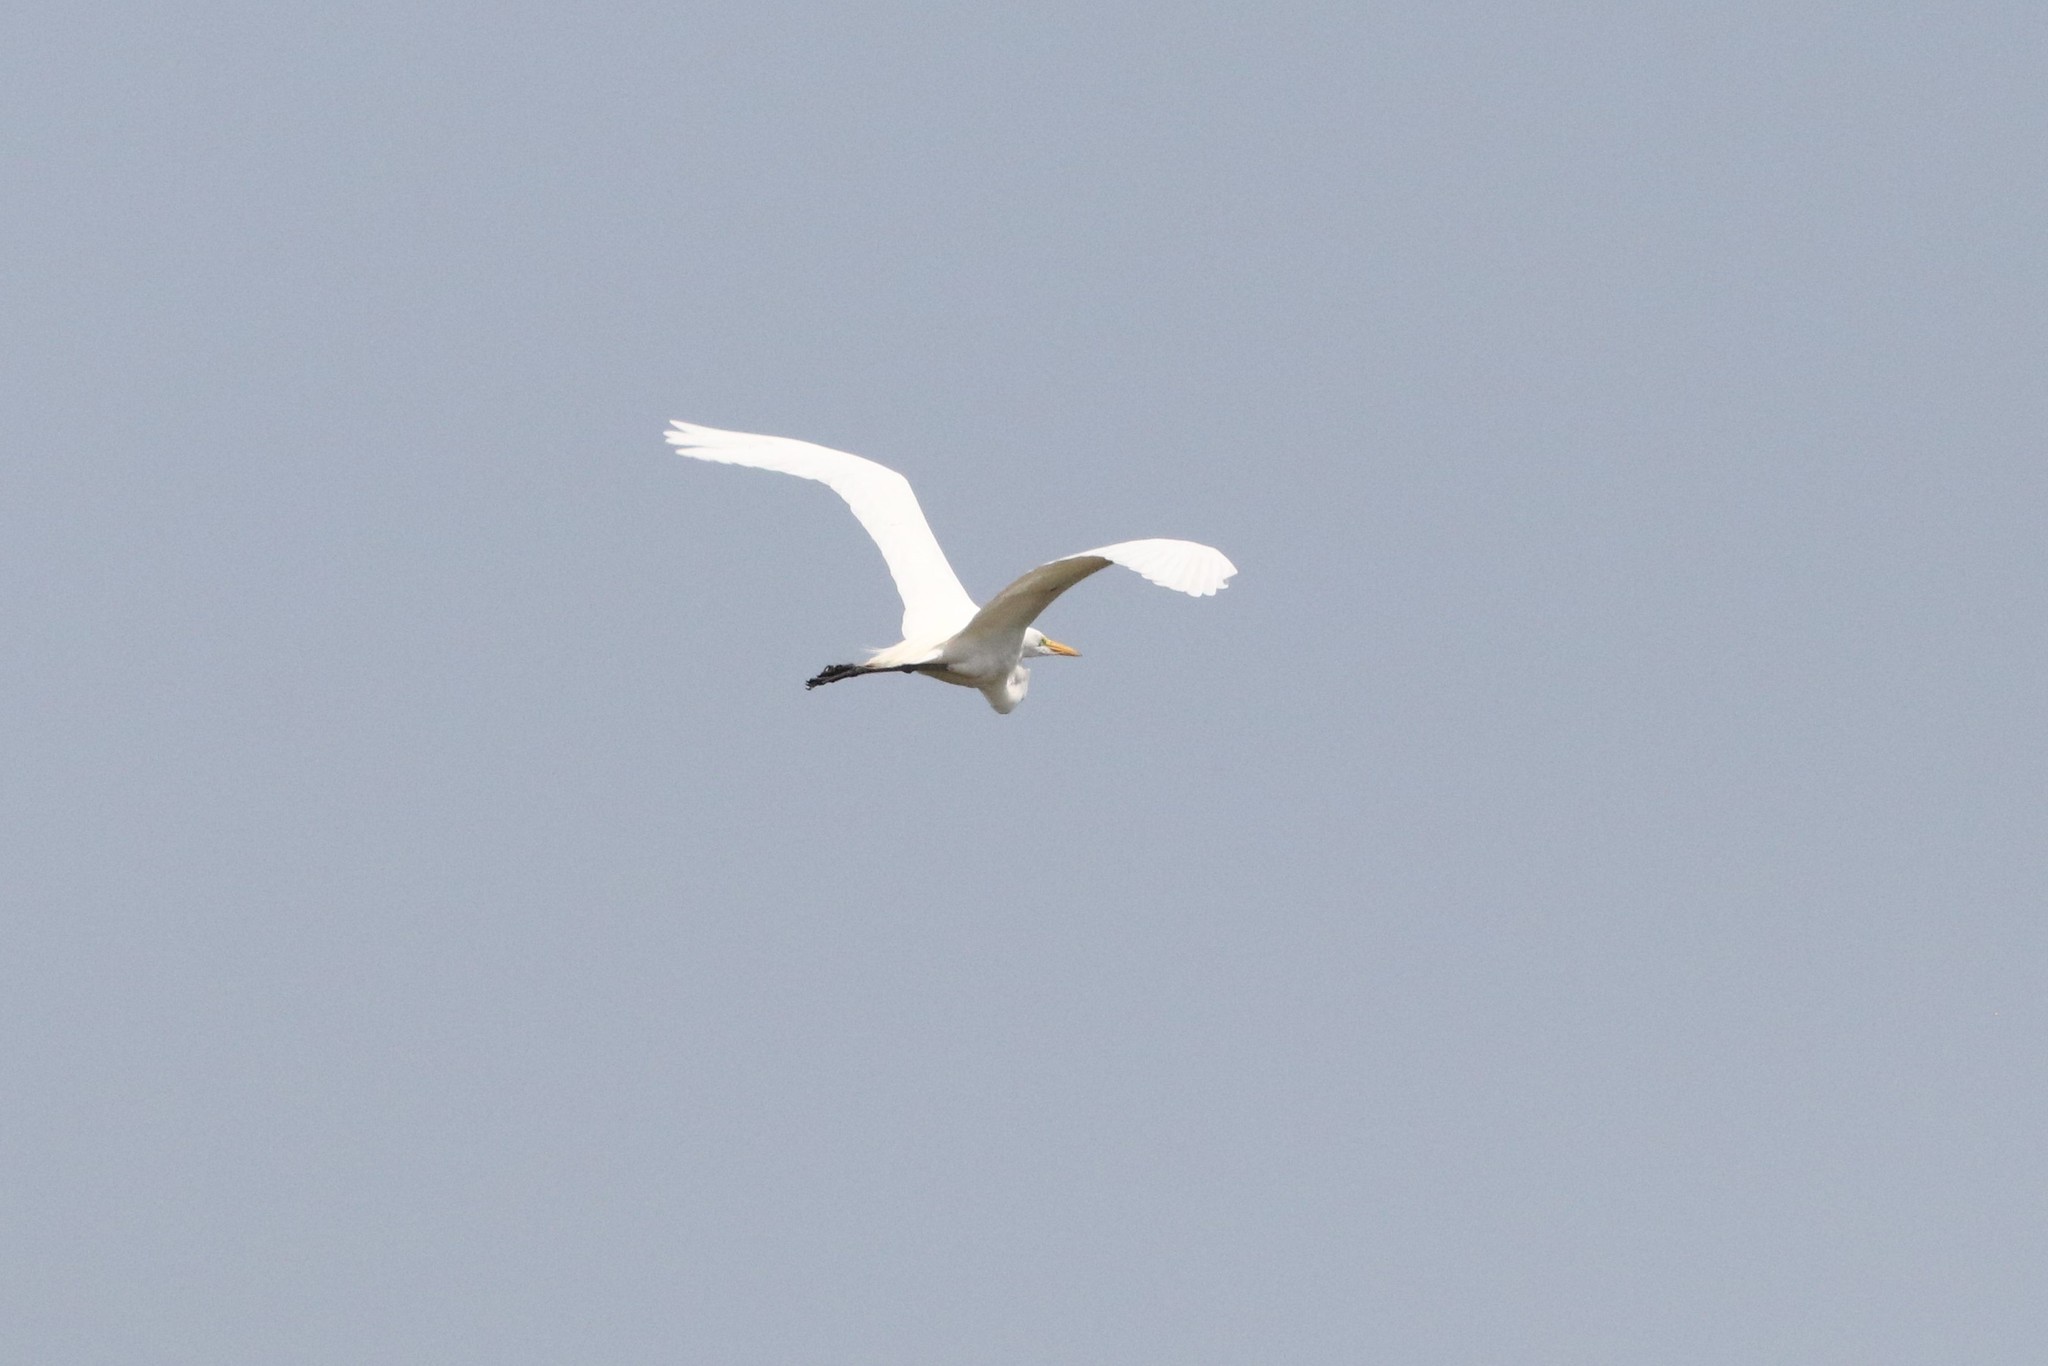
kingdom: Animalia
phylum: Chordata
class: Aves
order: Pelecaniformes
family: Ardeidae
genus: Ardea
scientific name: Ardea alba
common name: Great egret
